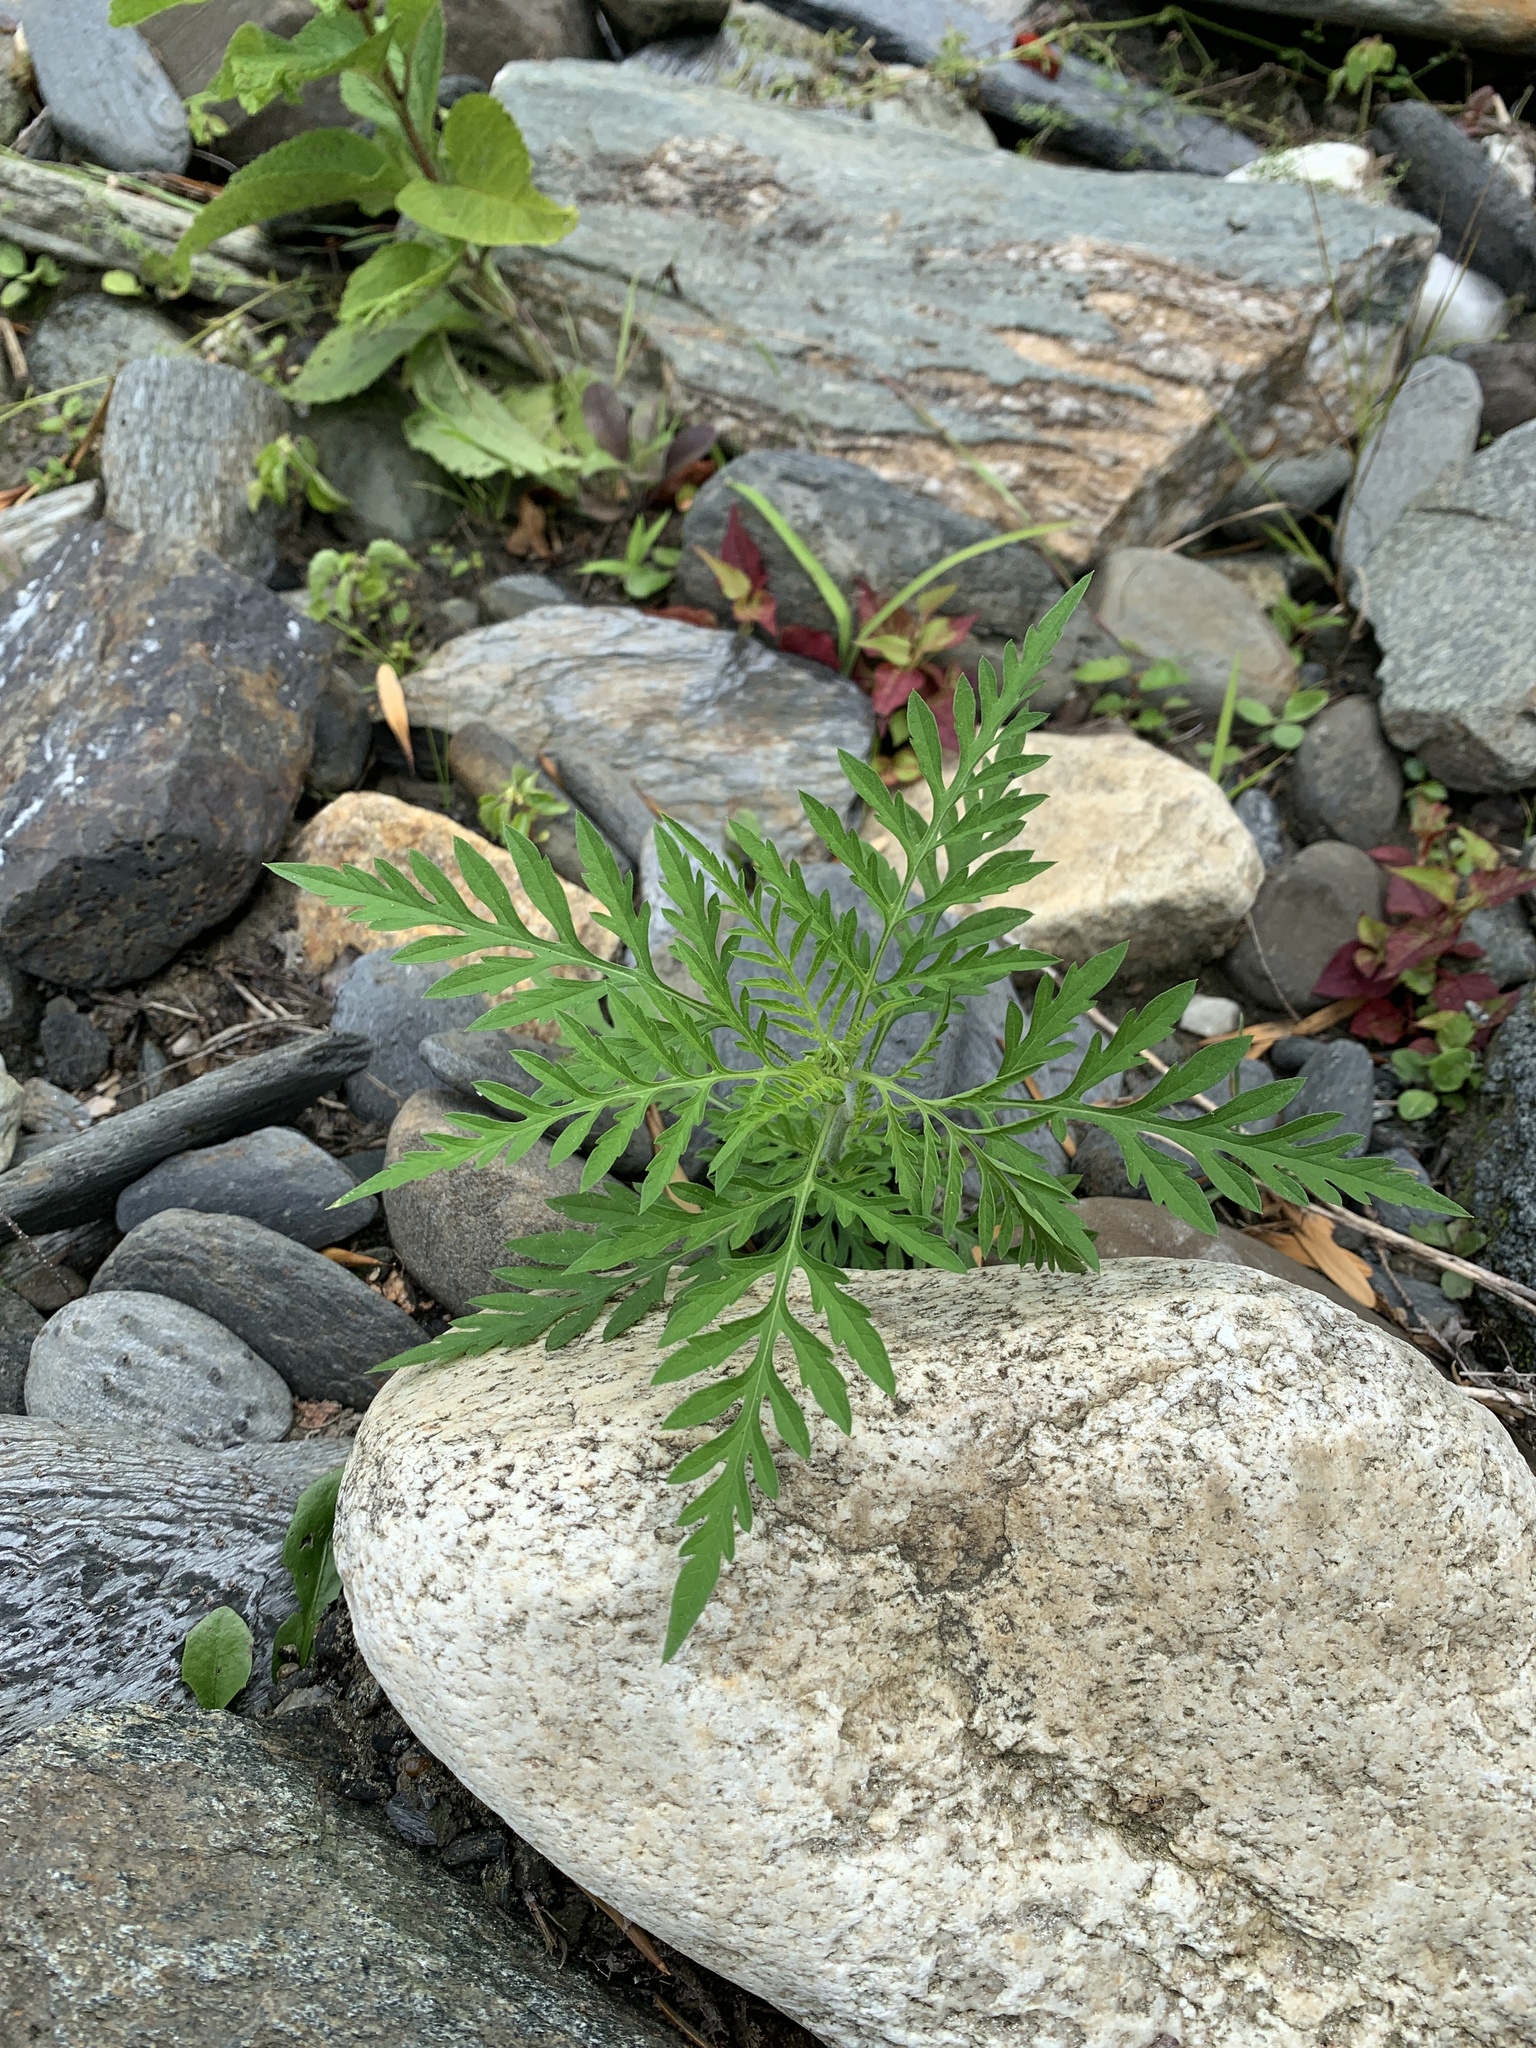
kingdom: Plantae
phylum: Tracheophyta
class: Magnoliopsida
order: Asterales
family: Asteraceae
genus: Ambrosia
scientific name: Ambrosia artemisiifolia
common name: Annual ragweed
